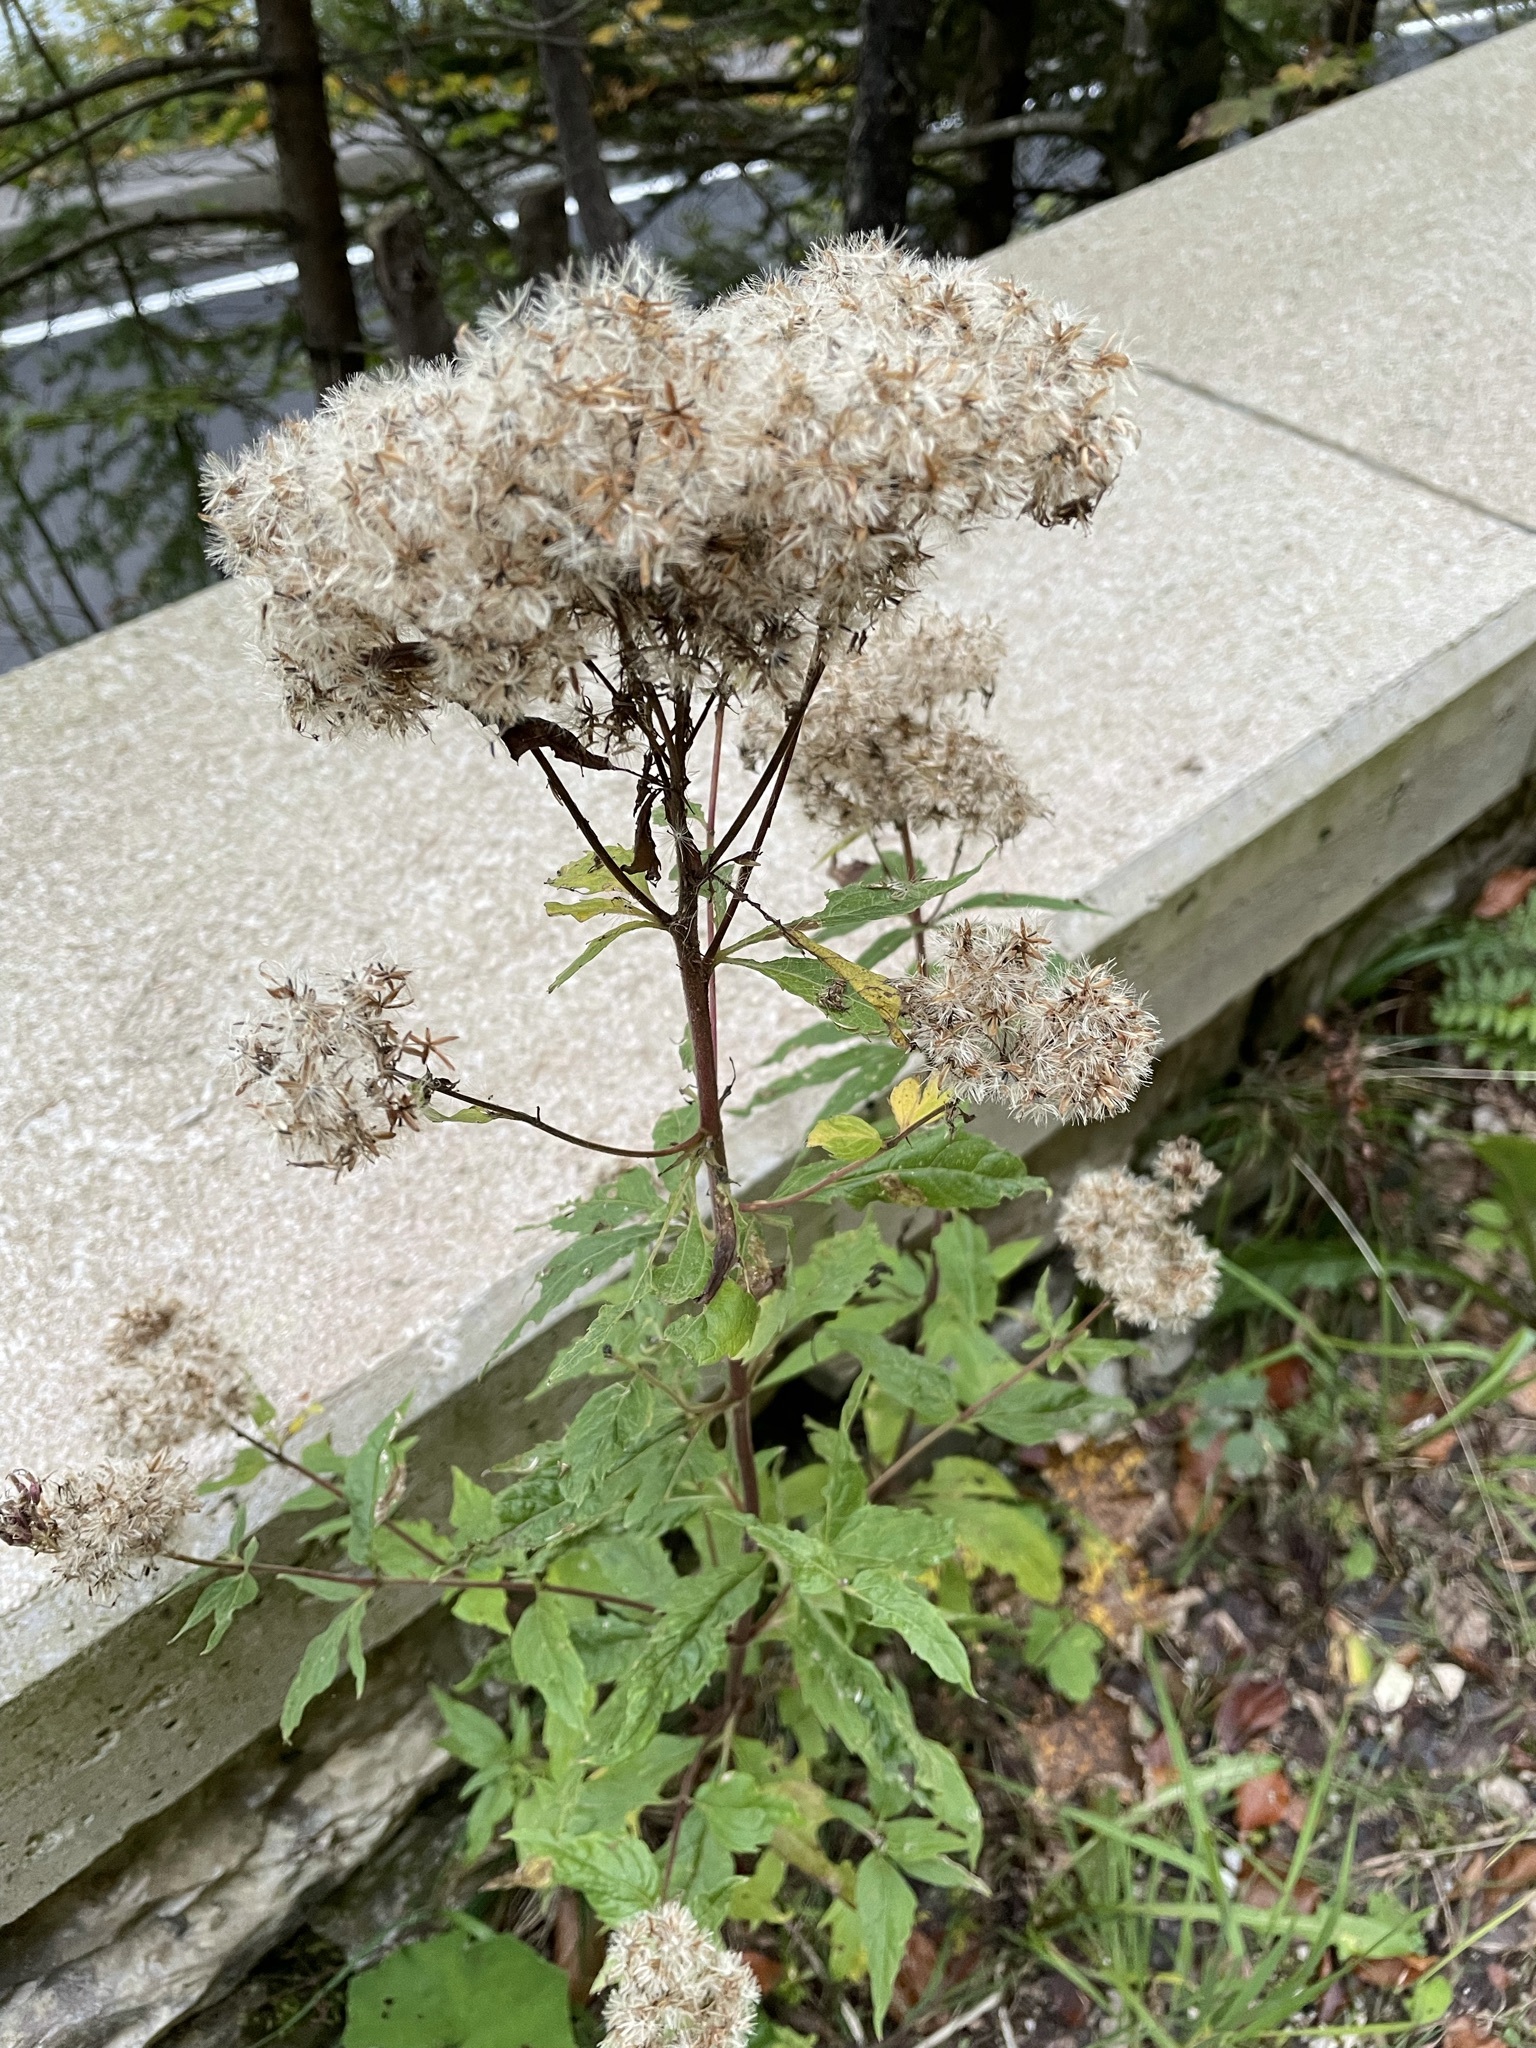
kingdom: Plantae
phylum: Tracheophyta
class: Magnoliopsida
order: Asterales
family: Asteraceae
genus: Eupatorium
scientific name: Eupatorium cannabinum
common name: Hemp-agrimony
